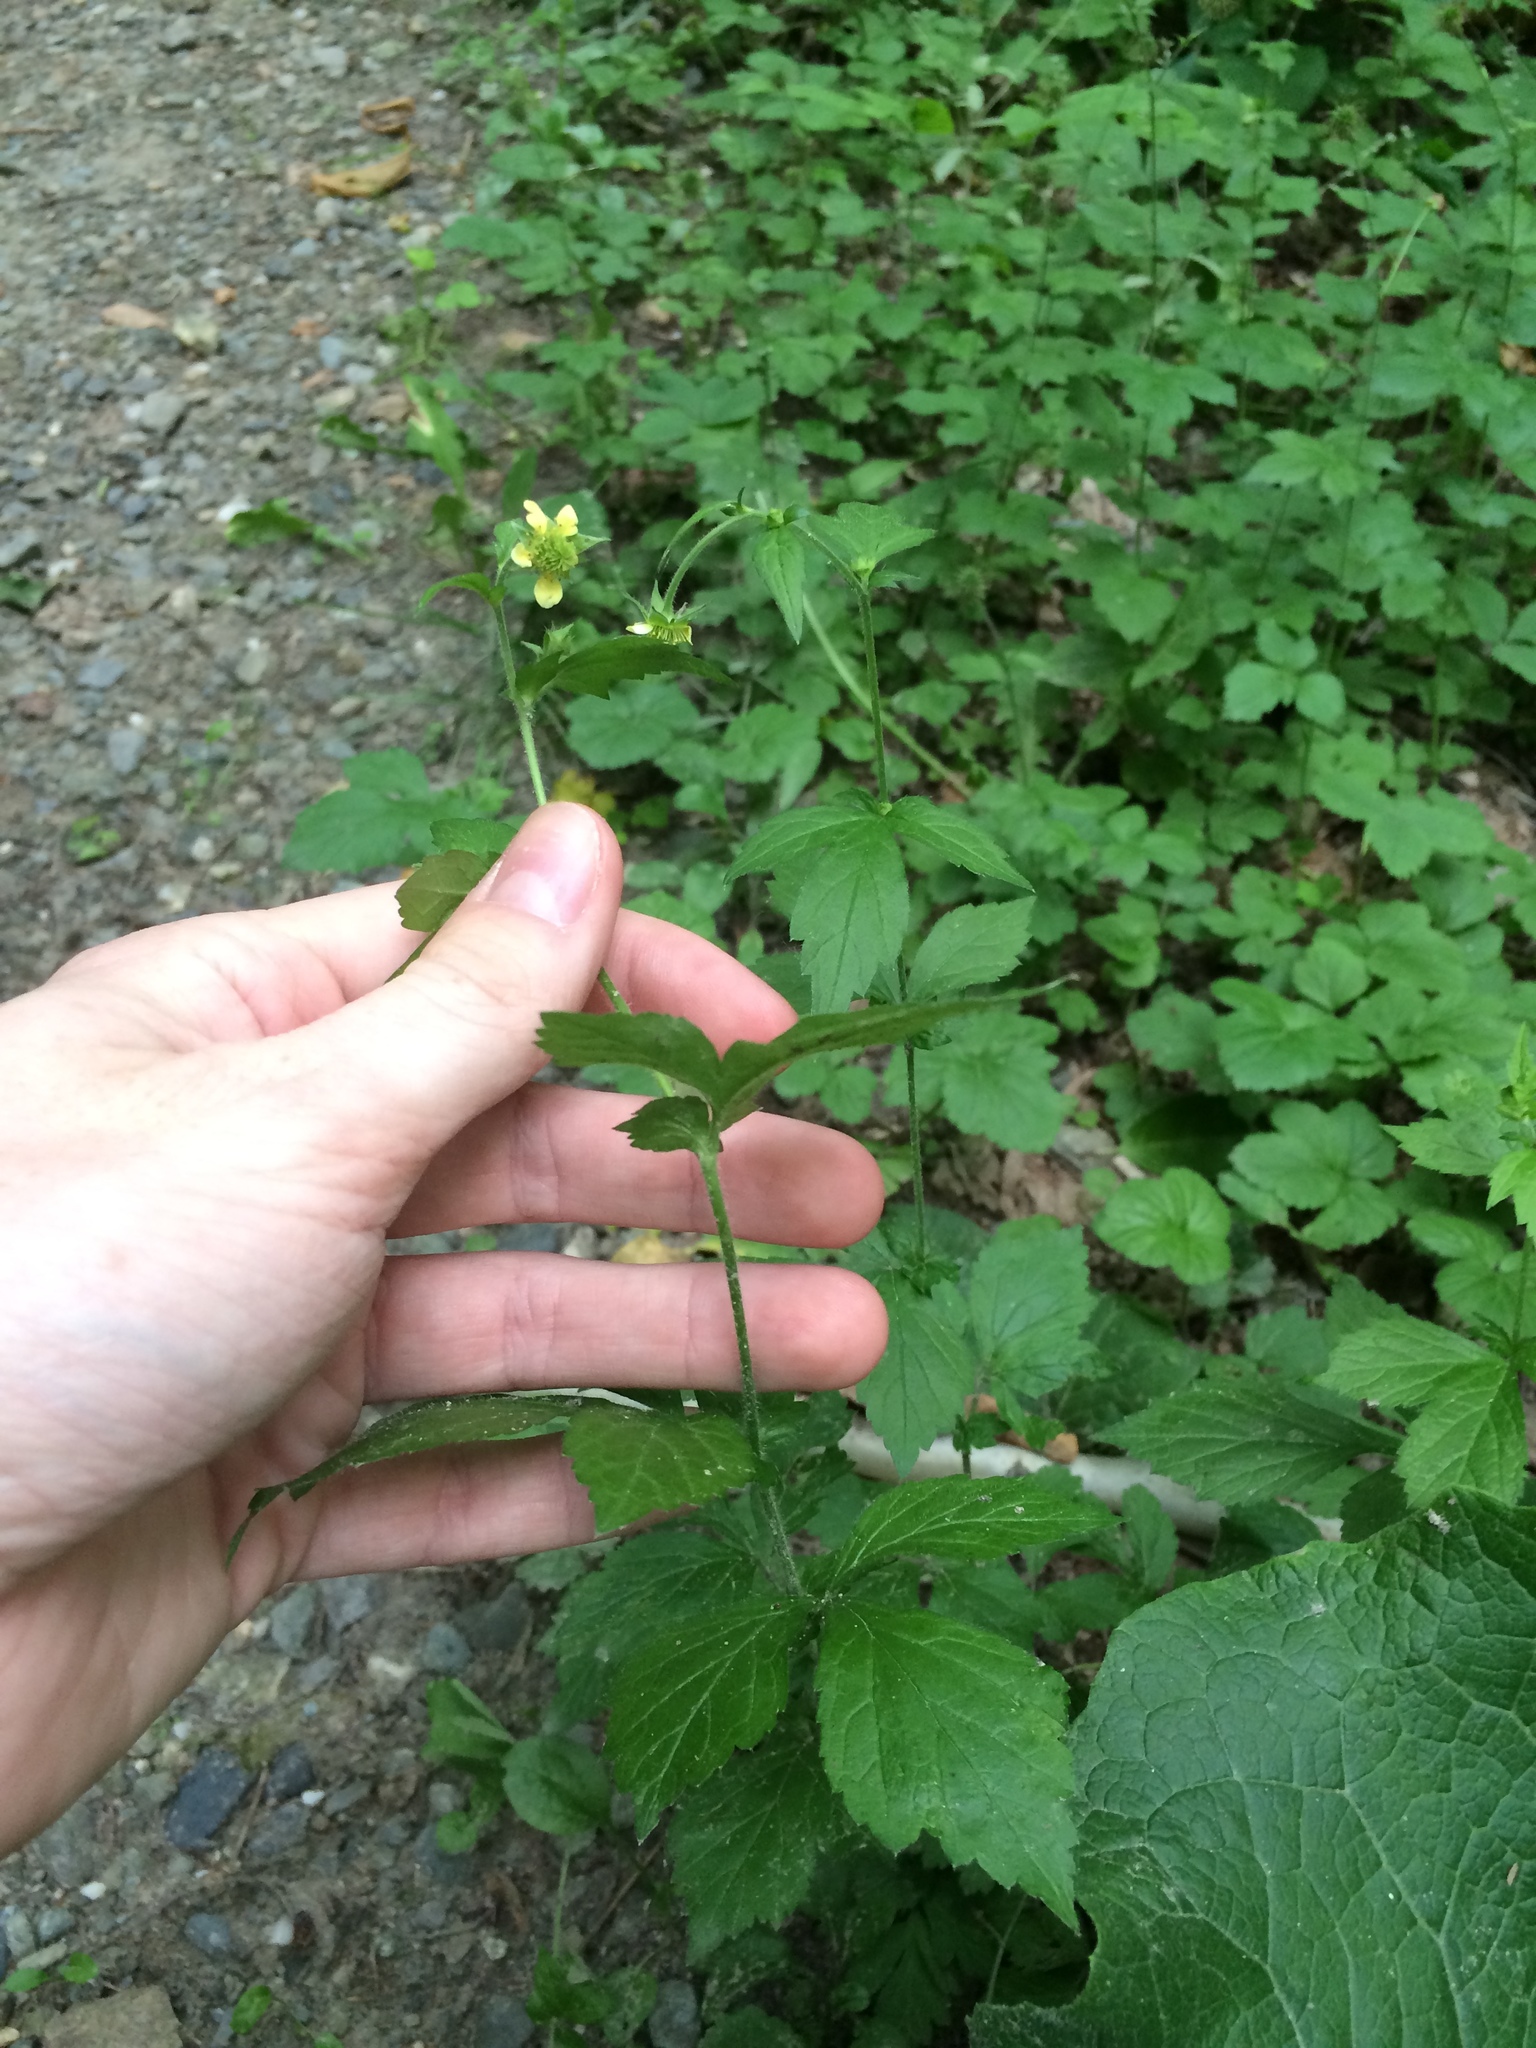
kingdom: Plantae
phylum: Tracheophyta
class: Magnoliopsida
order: Rosales
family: Rosaceae
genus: Geum
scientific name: Geum catlingii
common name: Catling's avens
